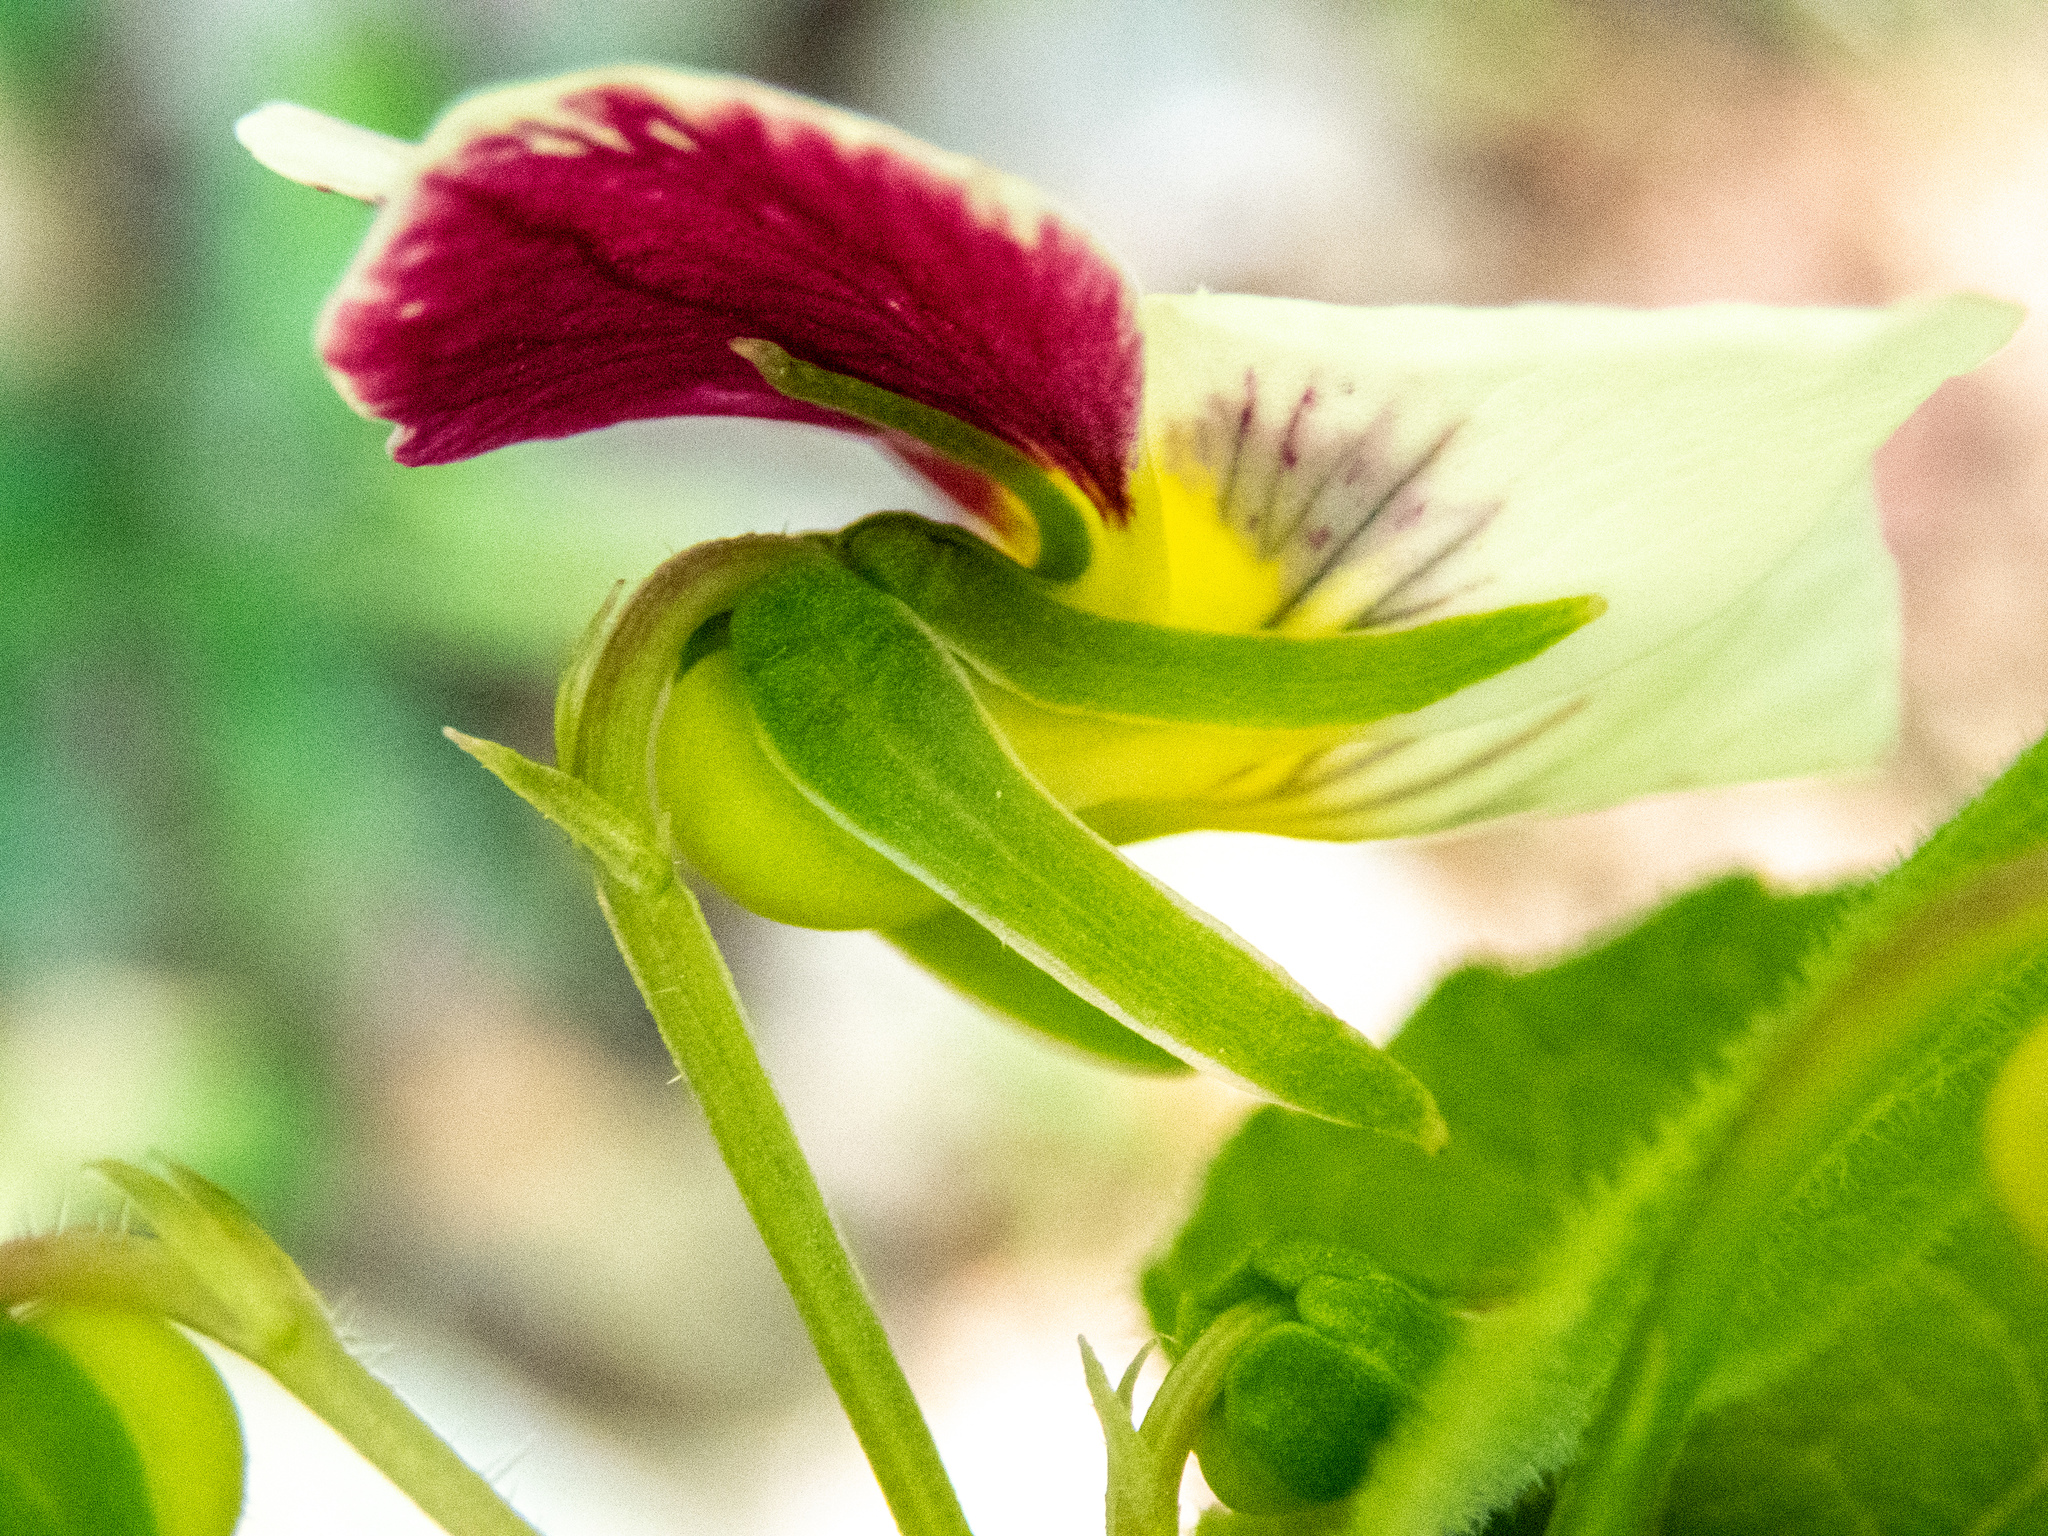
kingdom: Plantae
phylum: Tracheophyta
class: Magnoliopsida
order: Malpighiales
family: Violaceae
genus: Viola
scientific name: Viola ocellata
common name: Western heart's ease
